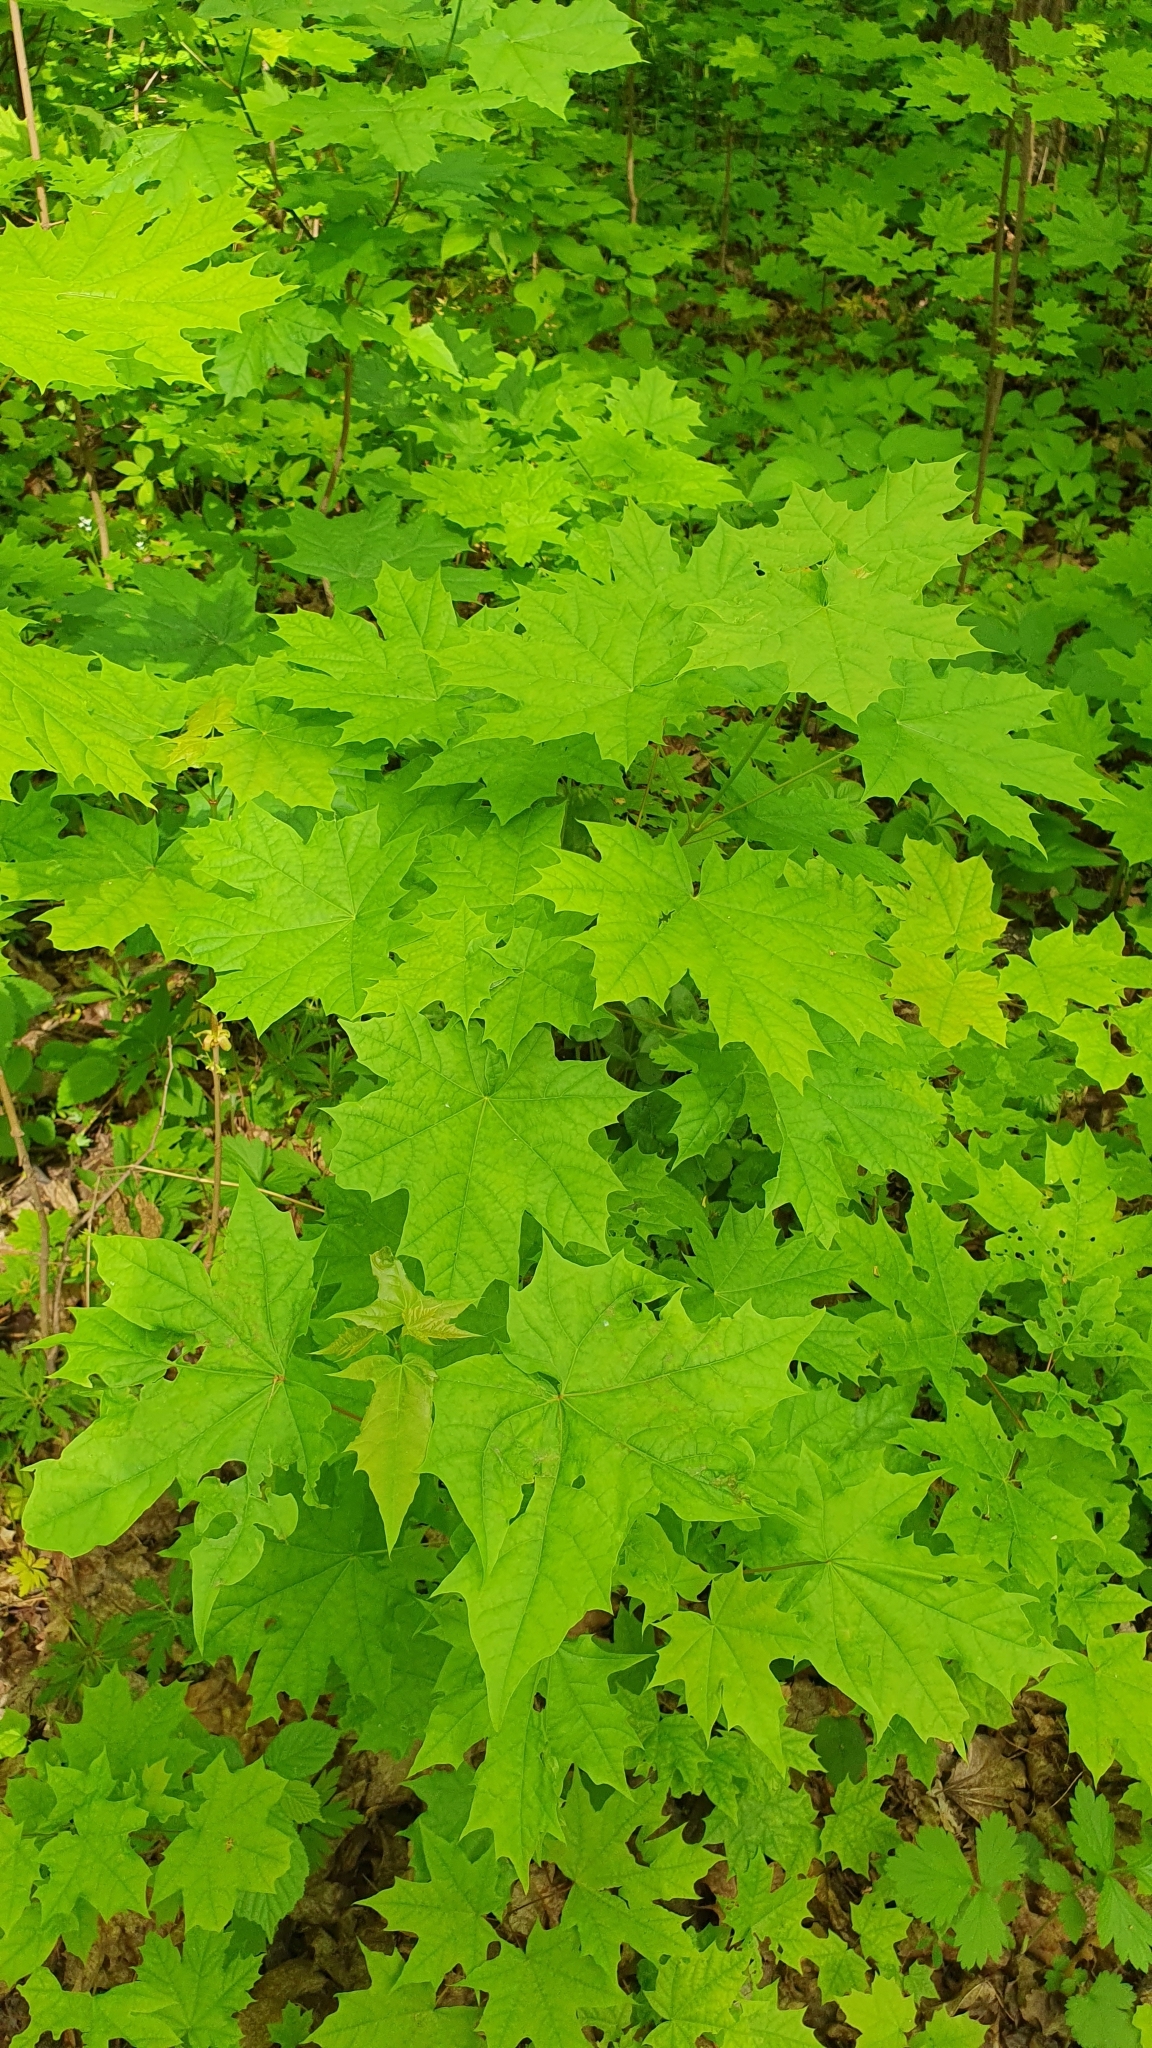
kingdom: Plantae
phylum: Tracheophyta
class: Magnoliopsida
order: Sapindales
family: Sapindaceae
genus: Acer
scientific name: Acer platanoides
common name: Norway maple
